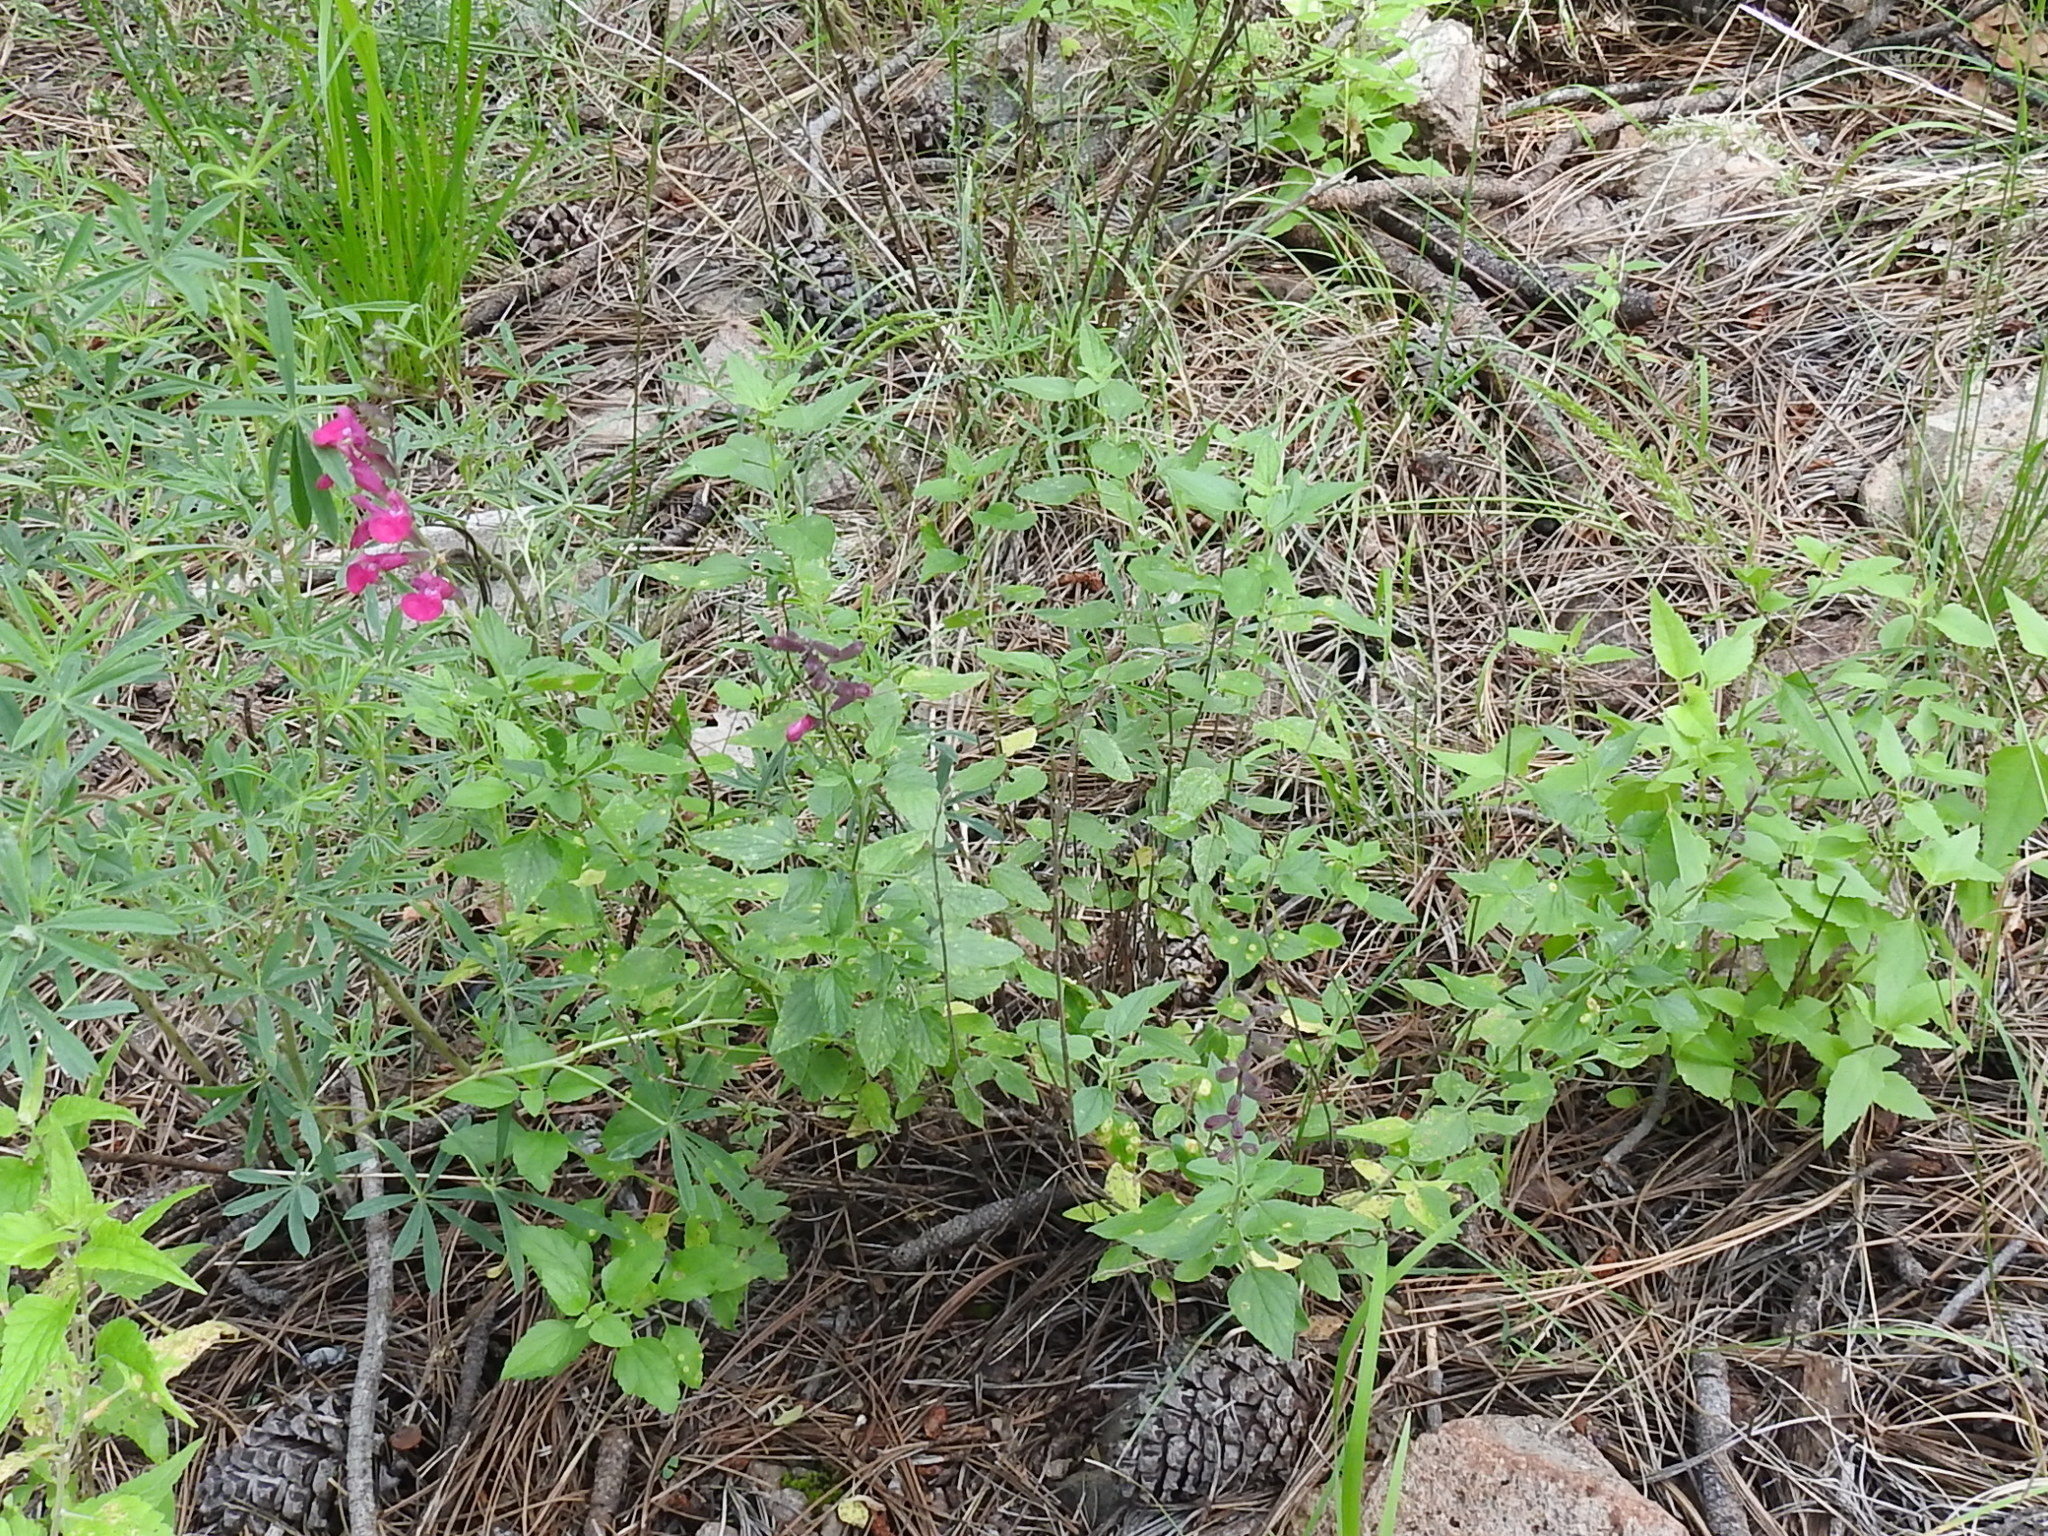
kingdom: Plantae
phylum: Tracheophyta
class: Magnoliopsida
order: Lamiales
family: Lamiaceae
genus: Salvia
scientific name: Salvia microphylla
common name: Baby sage
